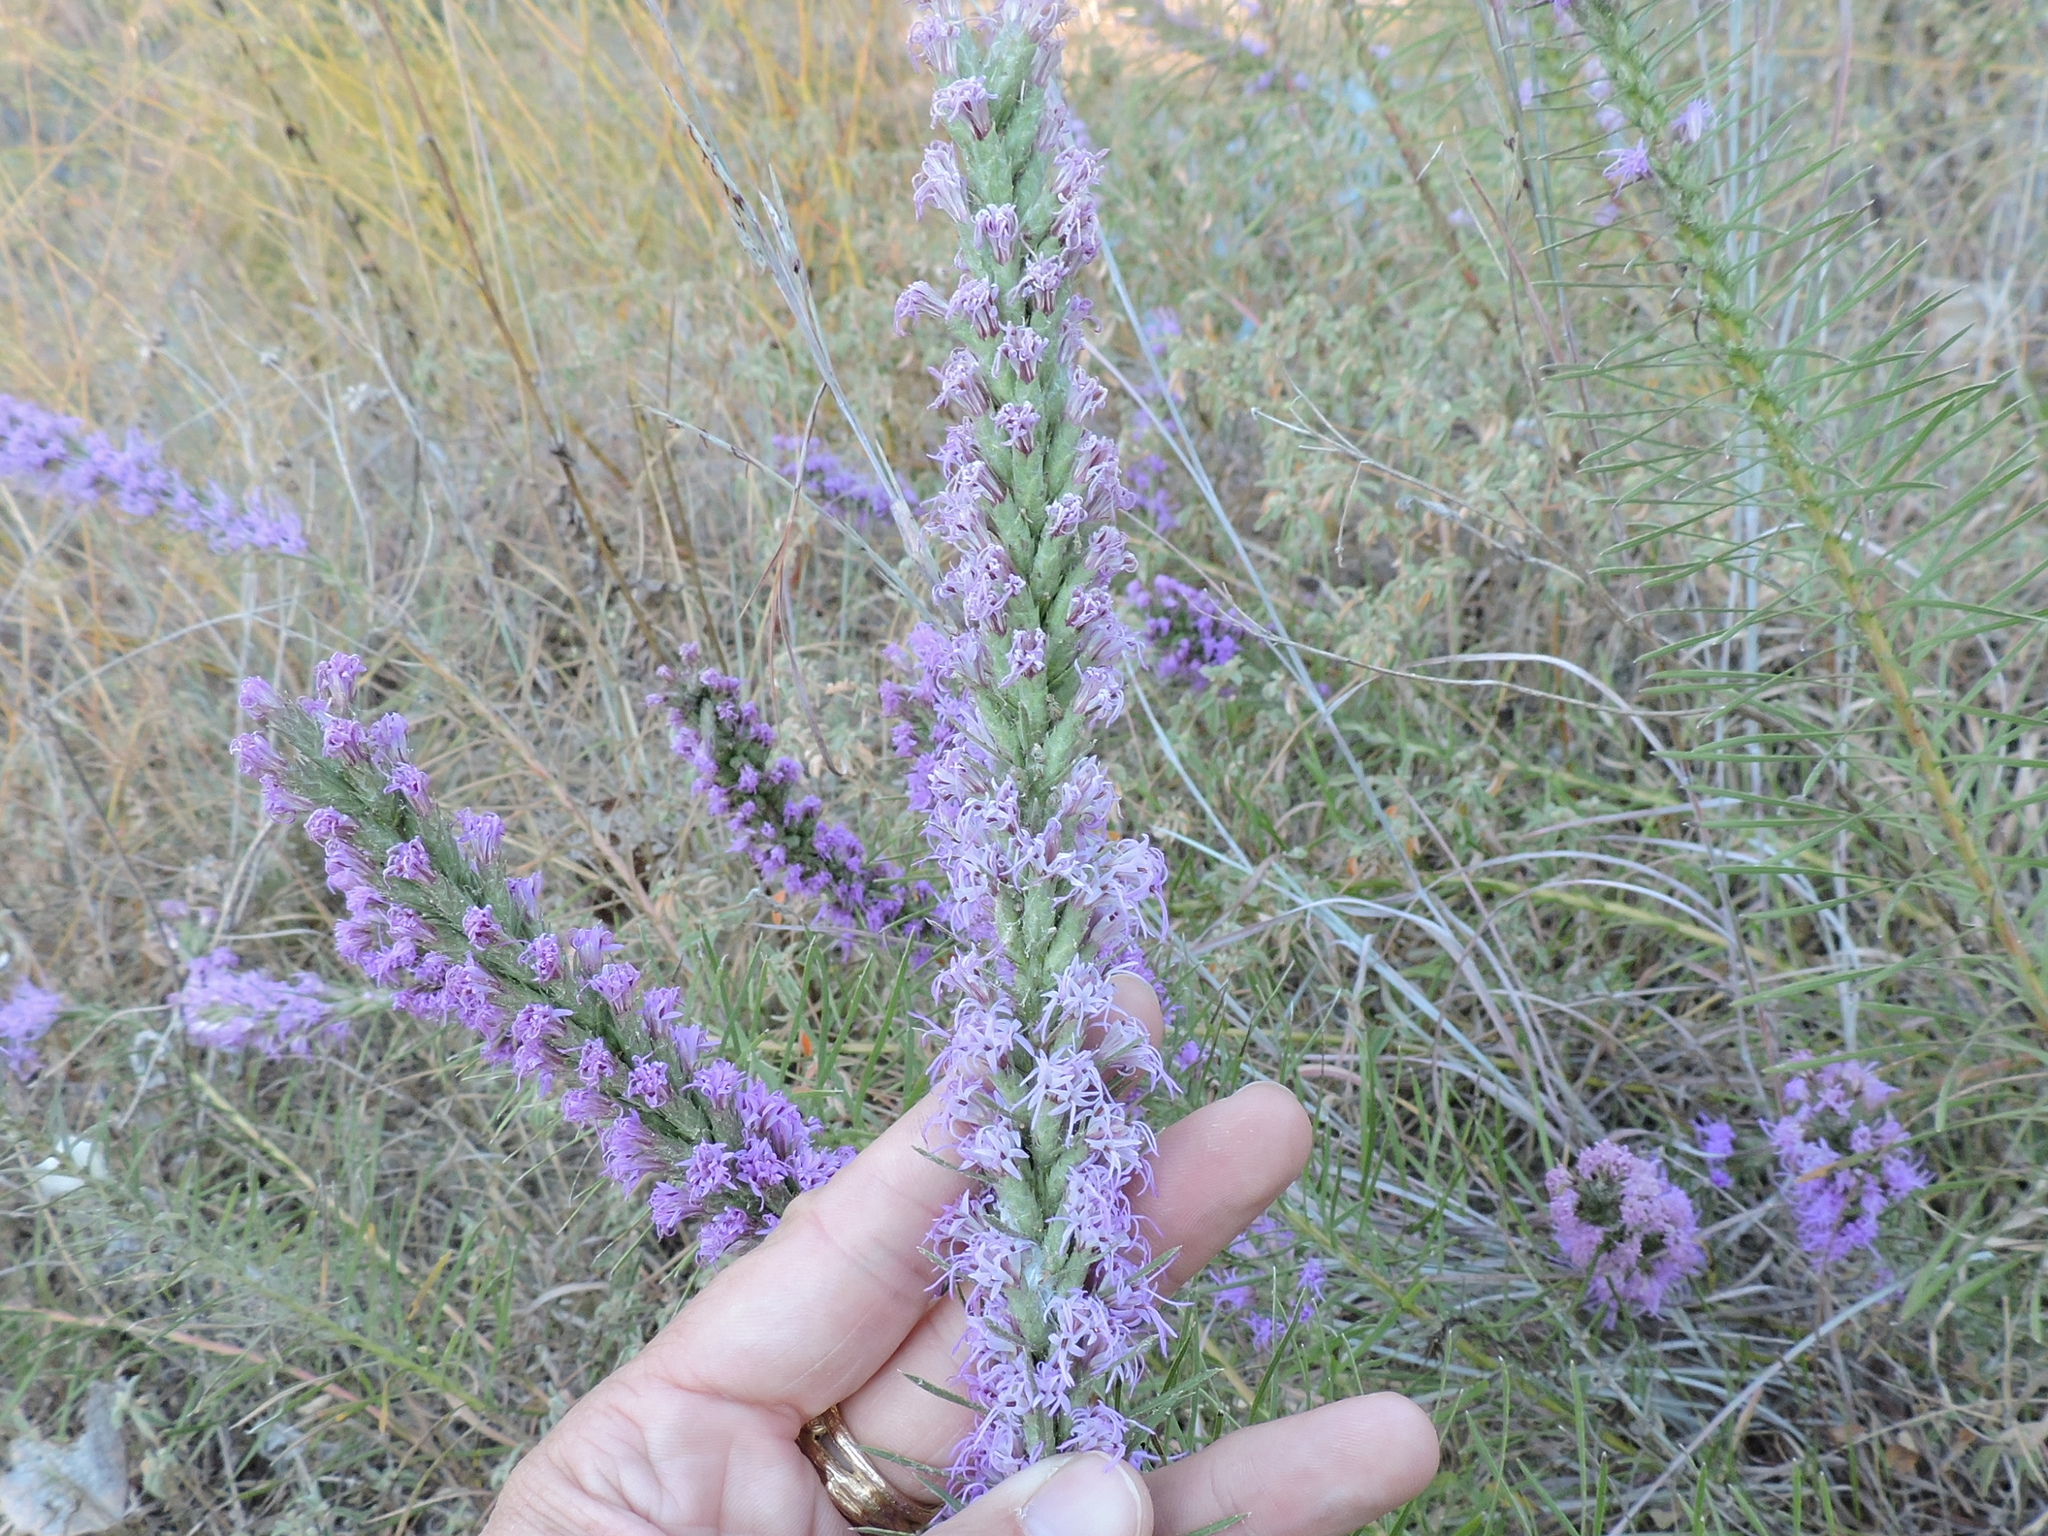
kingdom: Plantae
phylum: Tracheophyta
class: Magnoliopsida
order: Asterales
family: Asteraceae
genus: Liatris
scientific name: Liatris punctata
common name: Dotted gayfeather
